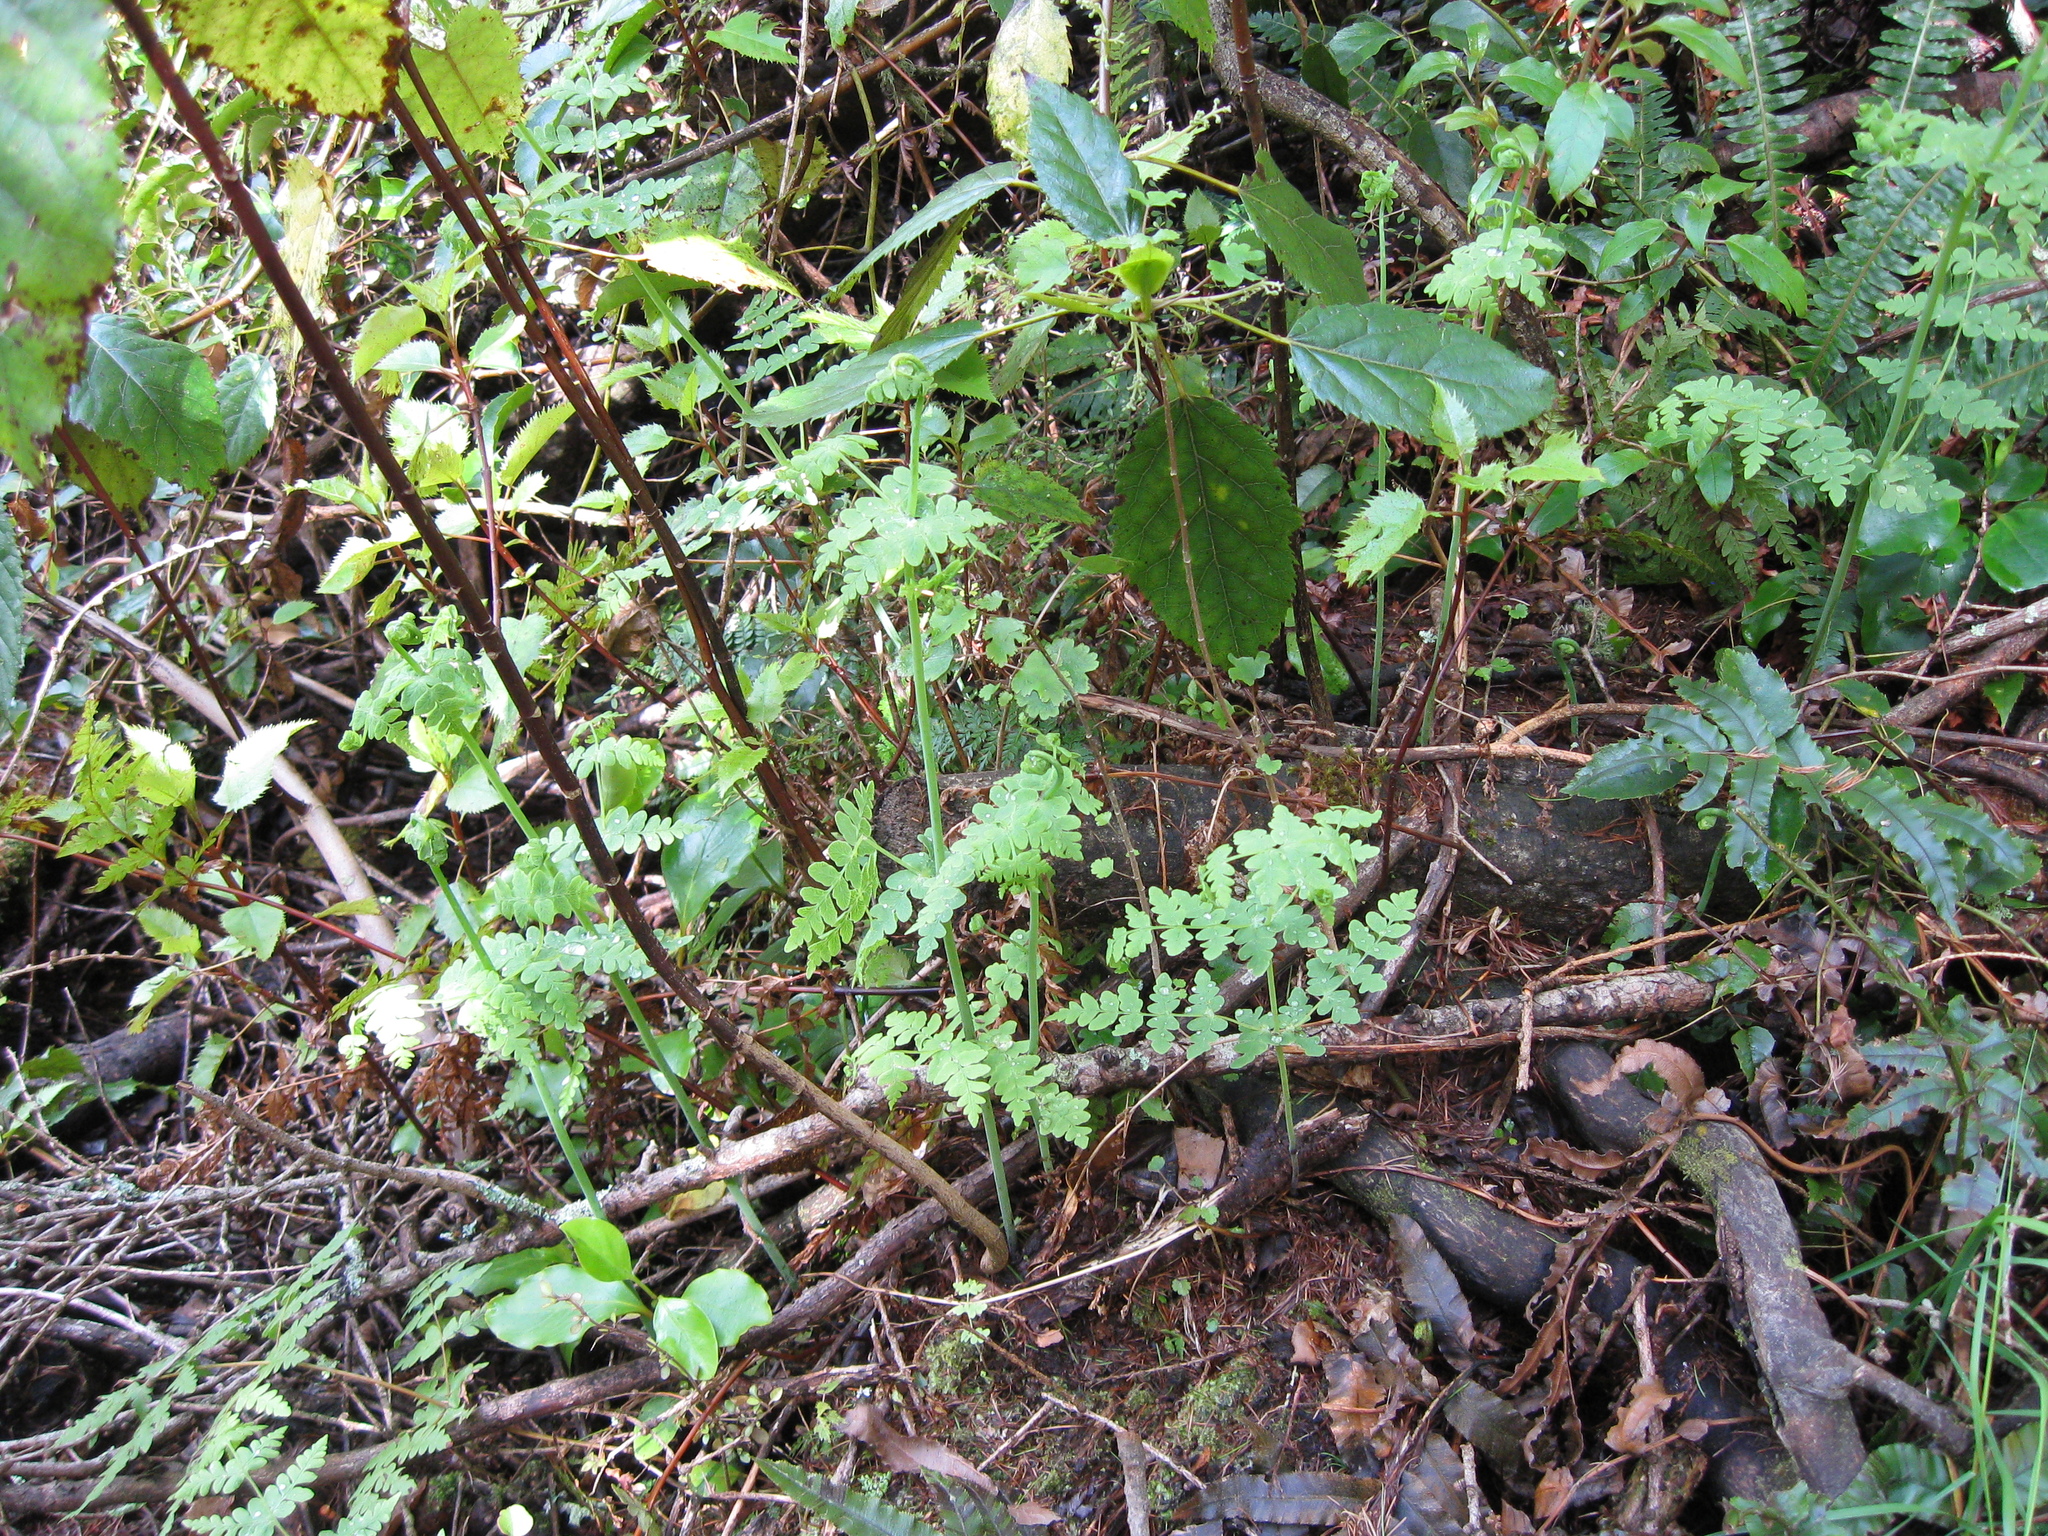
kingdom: Plantae
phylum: Tracheophyta
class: Polypodiopsida
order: Polypodiales
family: Dennstaedtiaceae
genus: Histiopteris
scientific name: Histiopteris incisa
